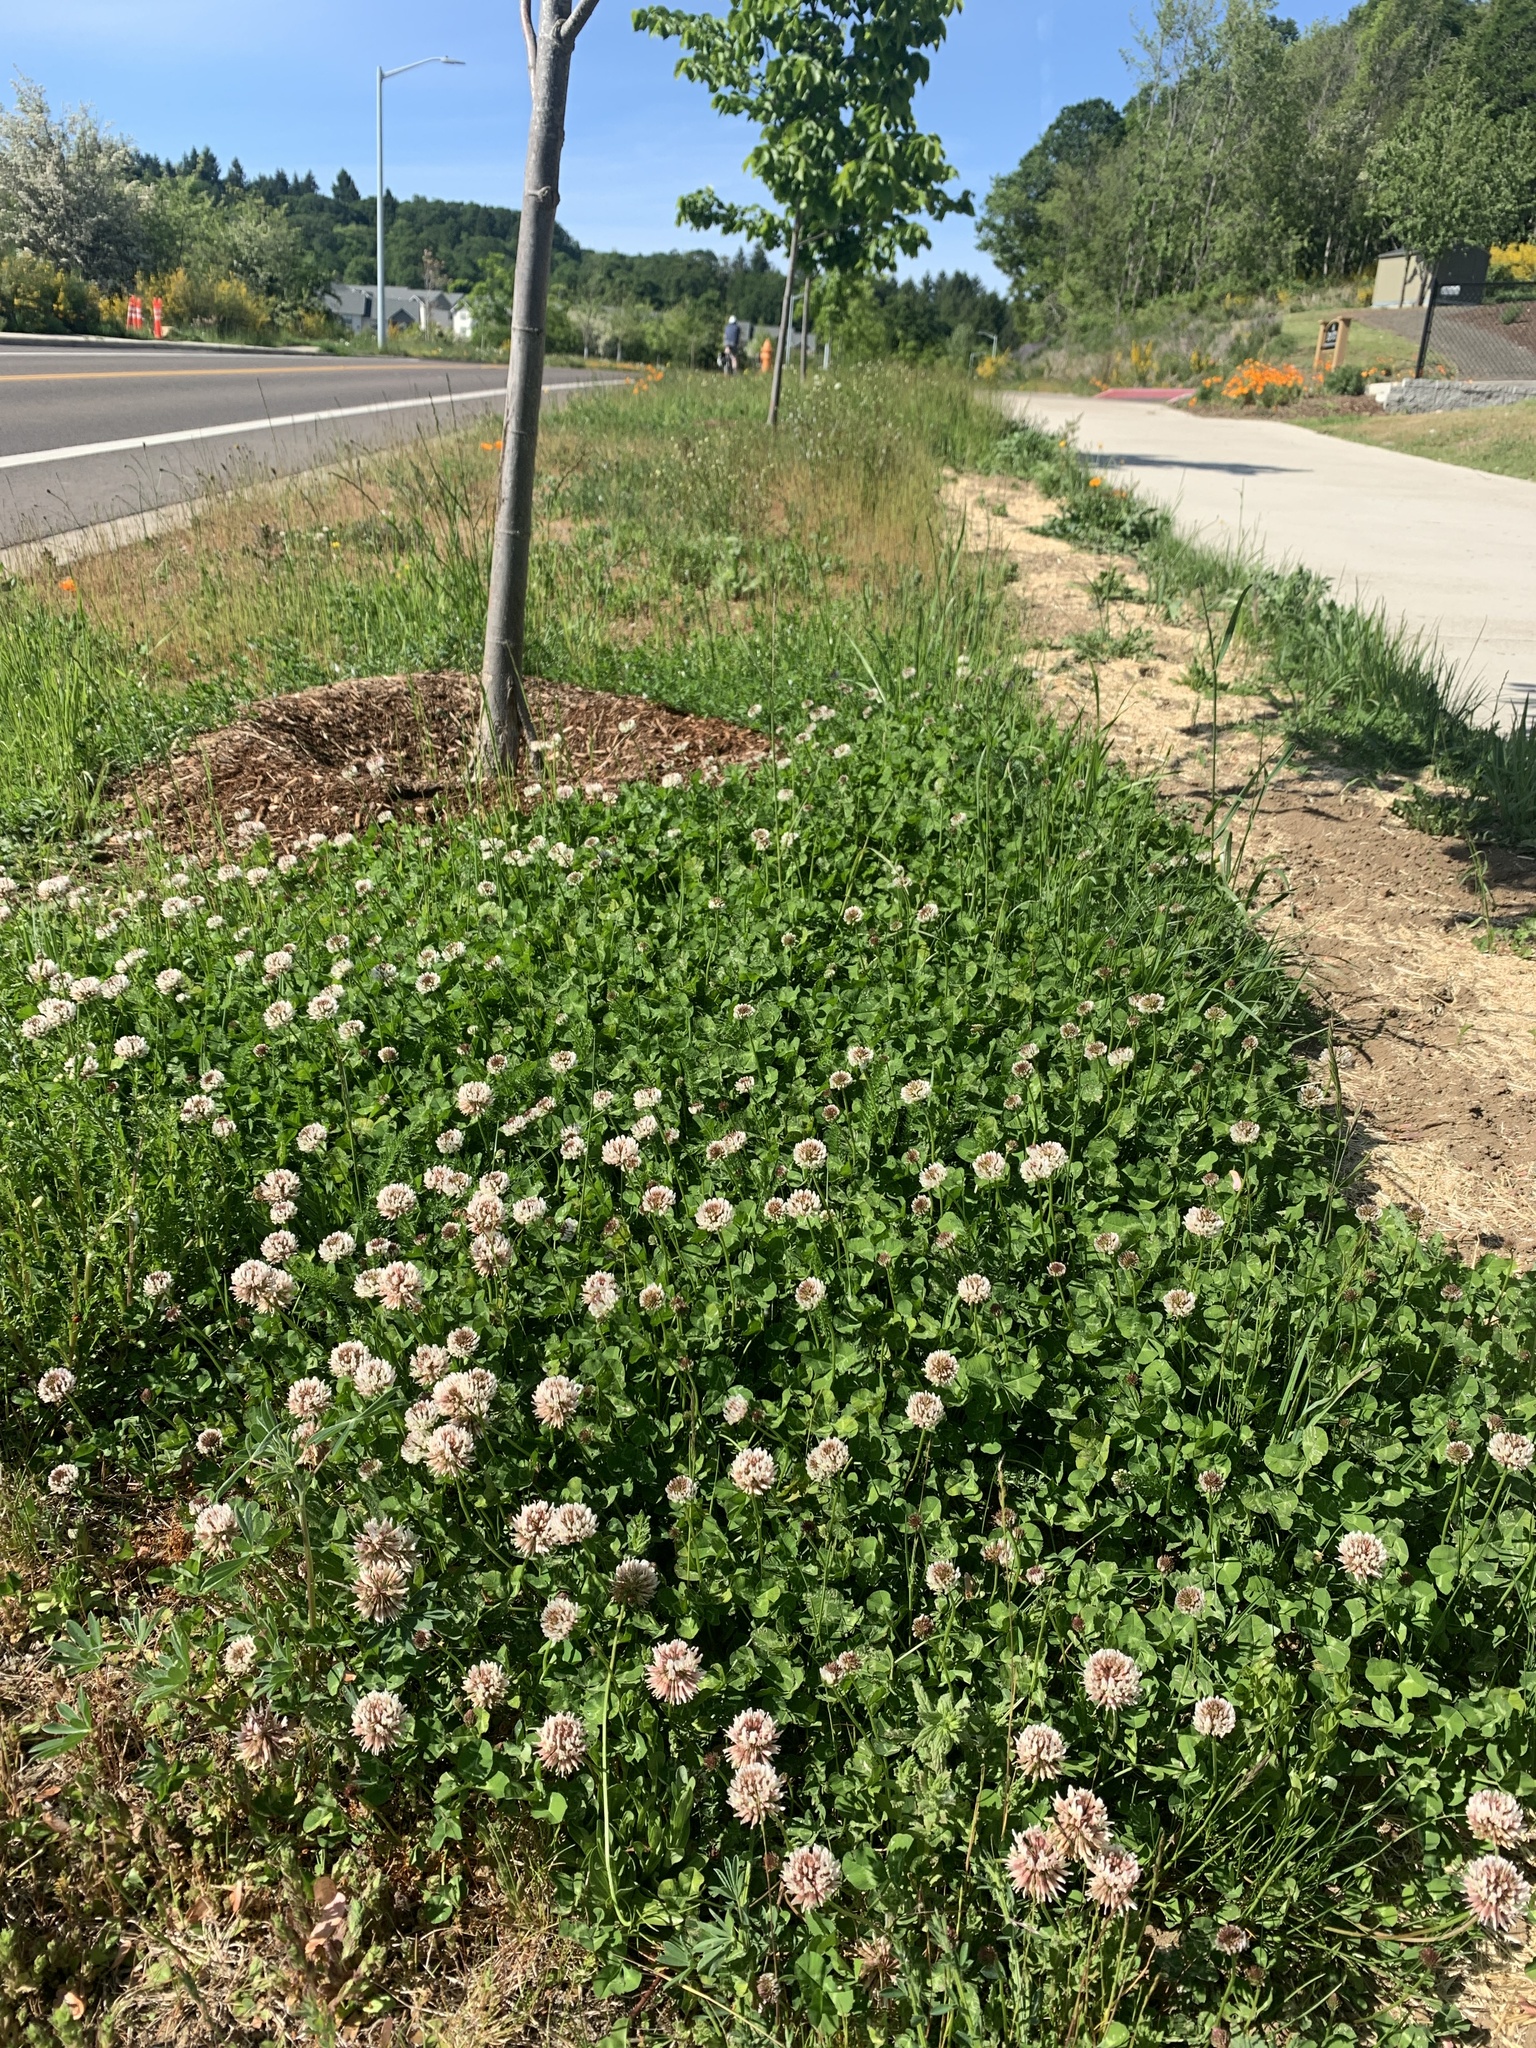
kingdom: Plantae
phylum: Tracheophyta
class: Magnoliopsida
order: Fabales
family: Fabaceae
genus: Trifolium
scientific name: Trifolium repens
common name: White clover
